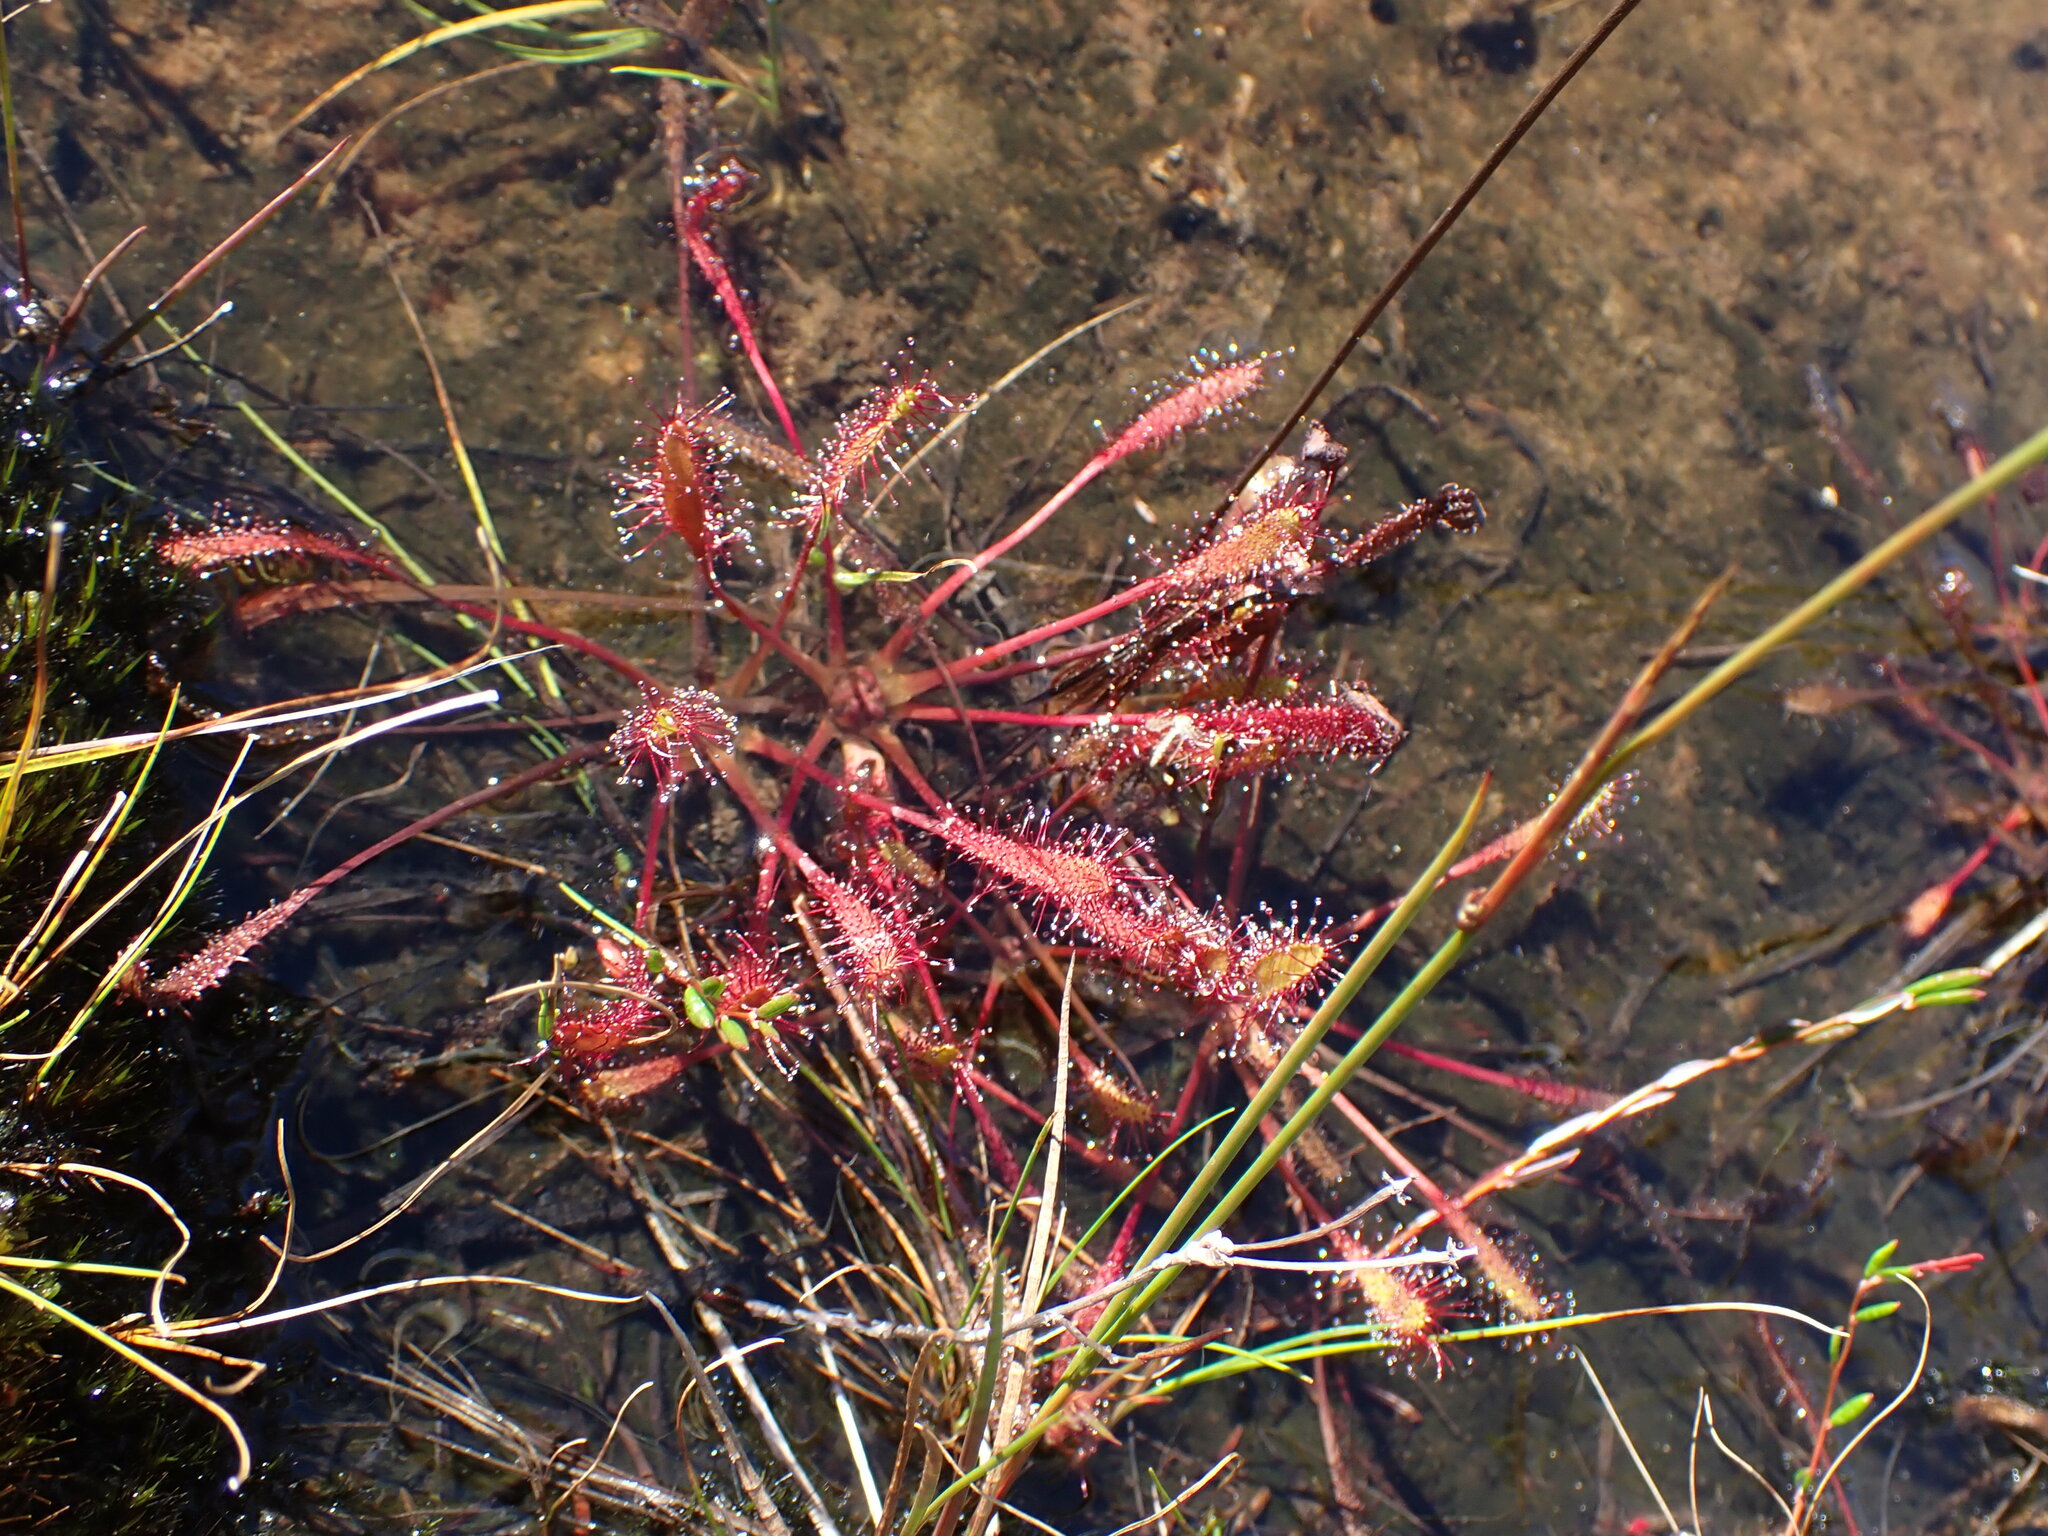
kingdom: Plantae
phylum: Tracheophyta
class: Magnoliopsida
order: Caryophyllales
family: Droseraceae
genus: Drosera
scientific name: Drosera anglica
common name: Great sundew
